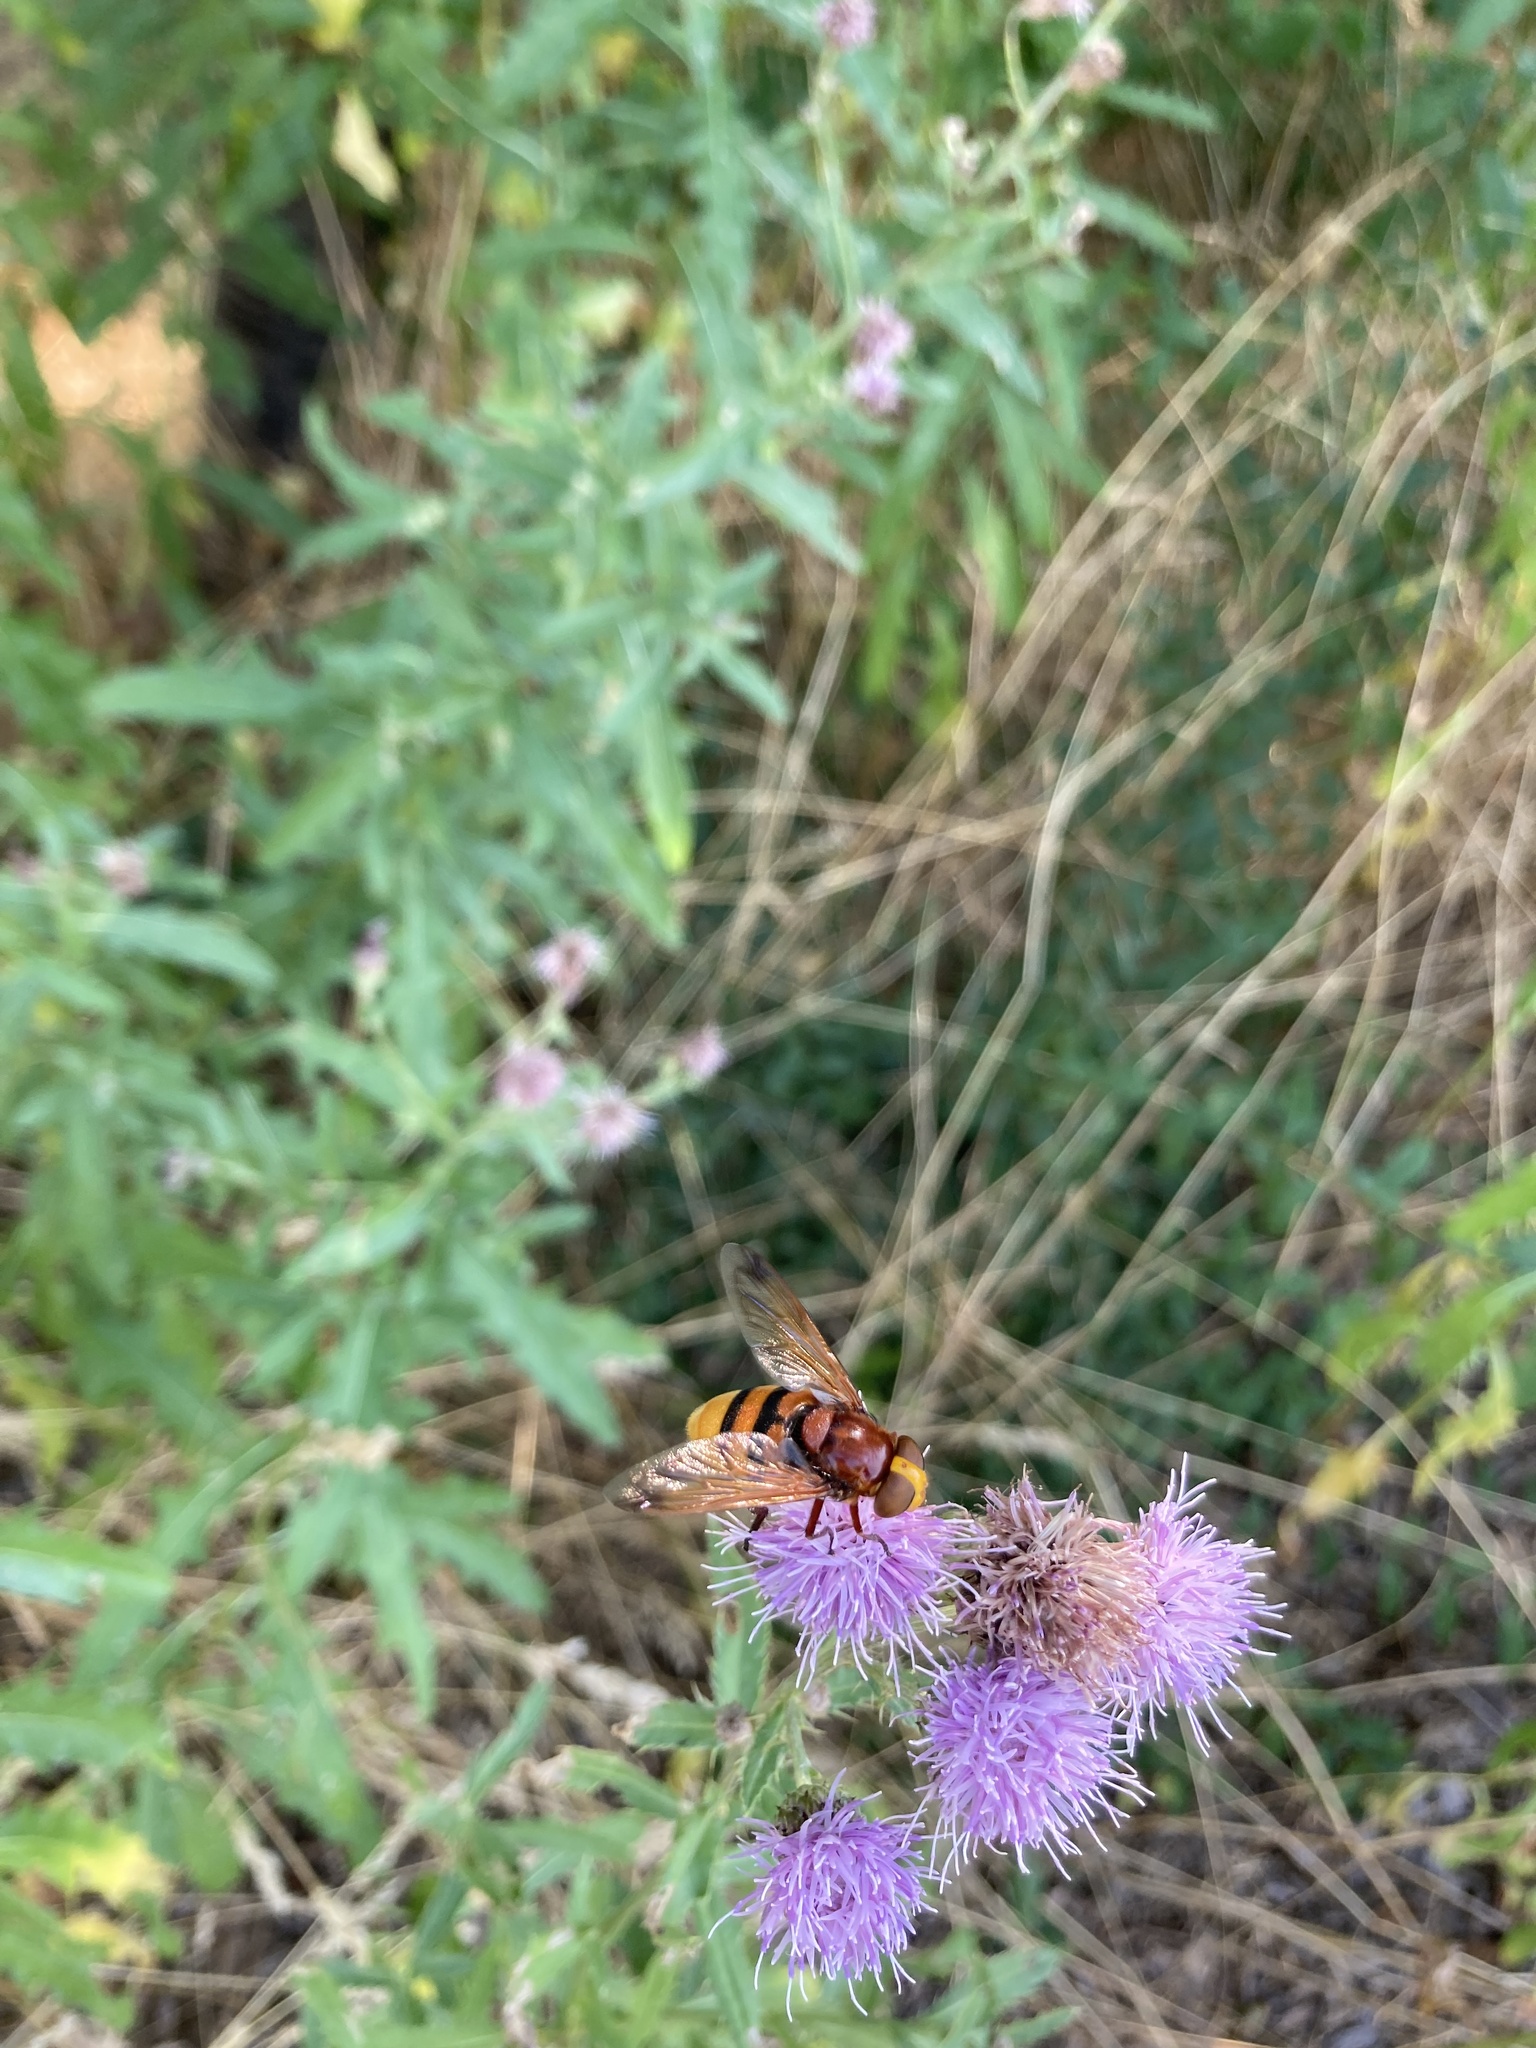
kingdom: Animalia
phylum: Arthropoda
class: Insecta
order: Diptera
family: Syrphidae
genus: Volucella
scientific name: Volucella zonaria
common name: Hornet hoverfly
